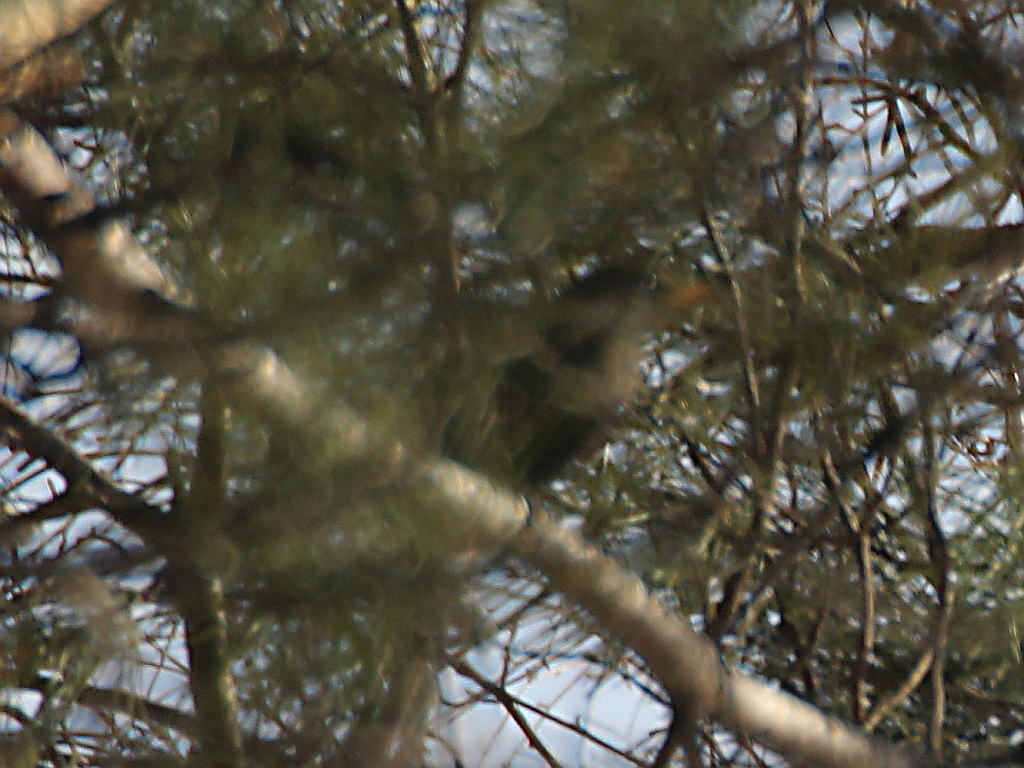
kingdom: Animalia
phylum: Chordata
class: Aves
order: Passeriformes
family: Turdidae
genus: Turdus
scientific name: Turdus merula
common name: Common blackbird
